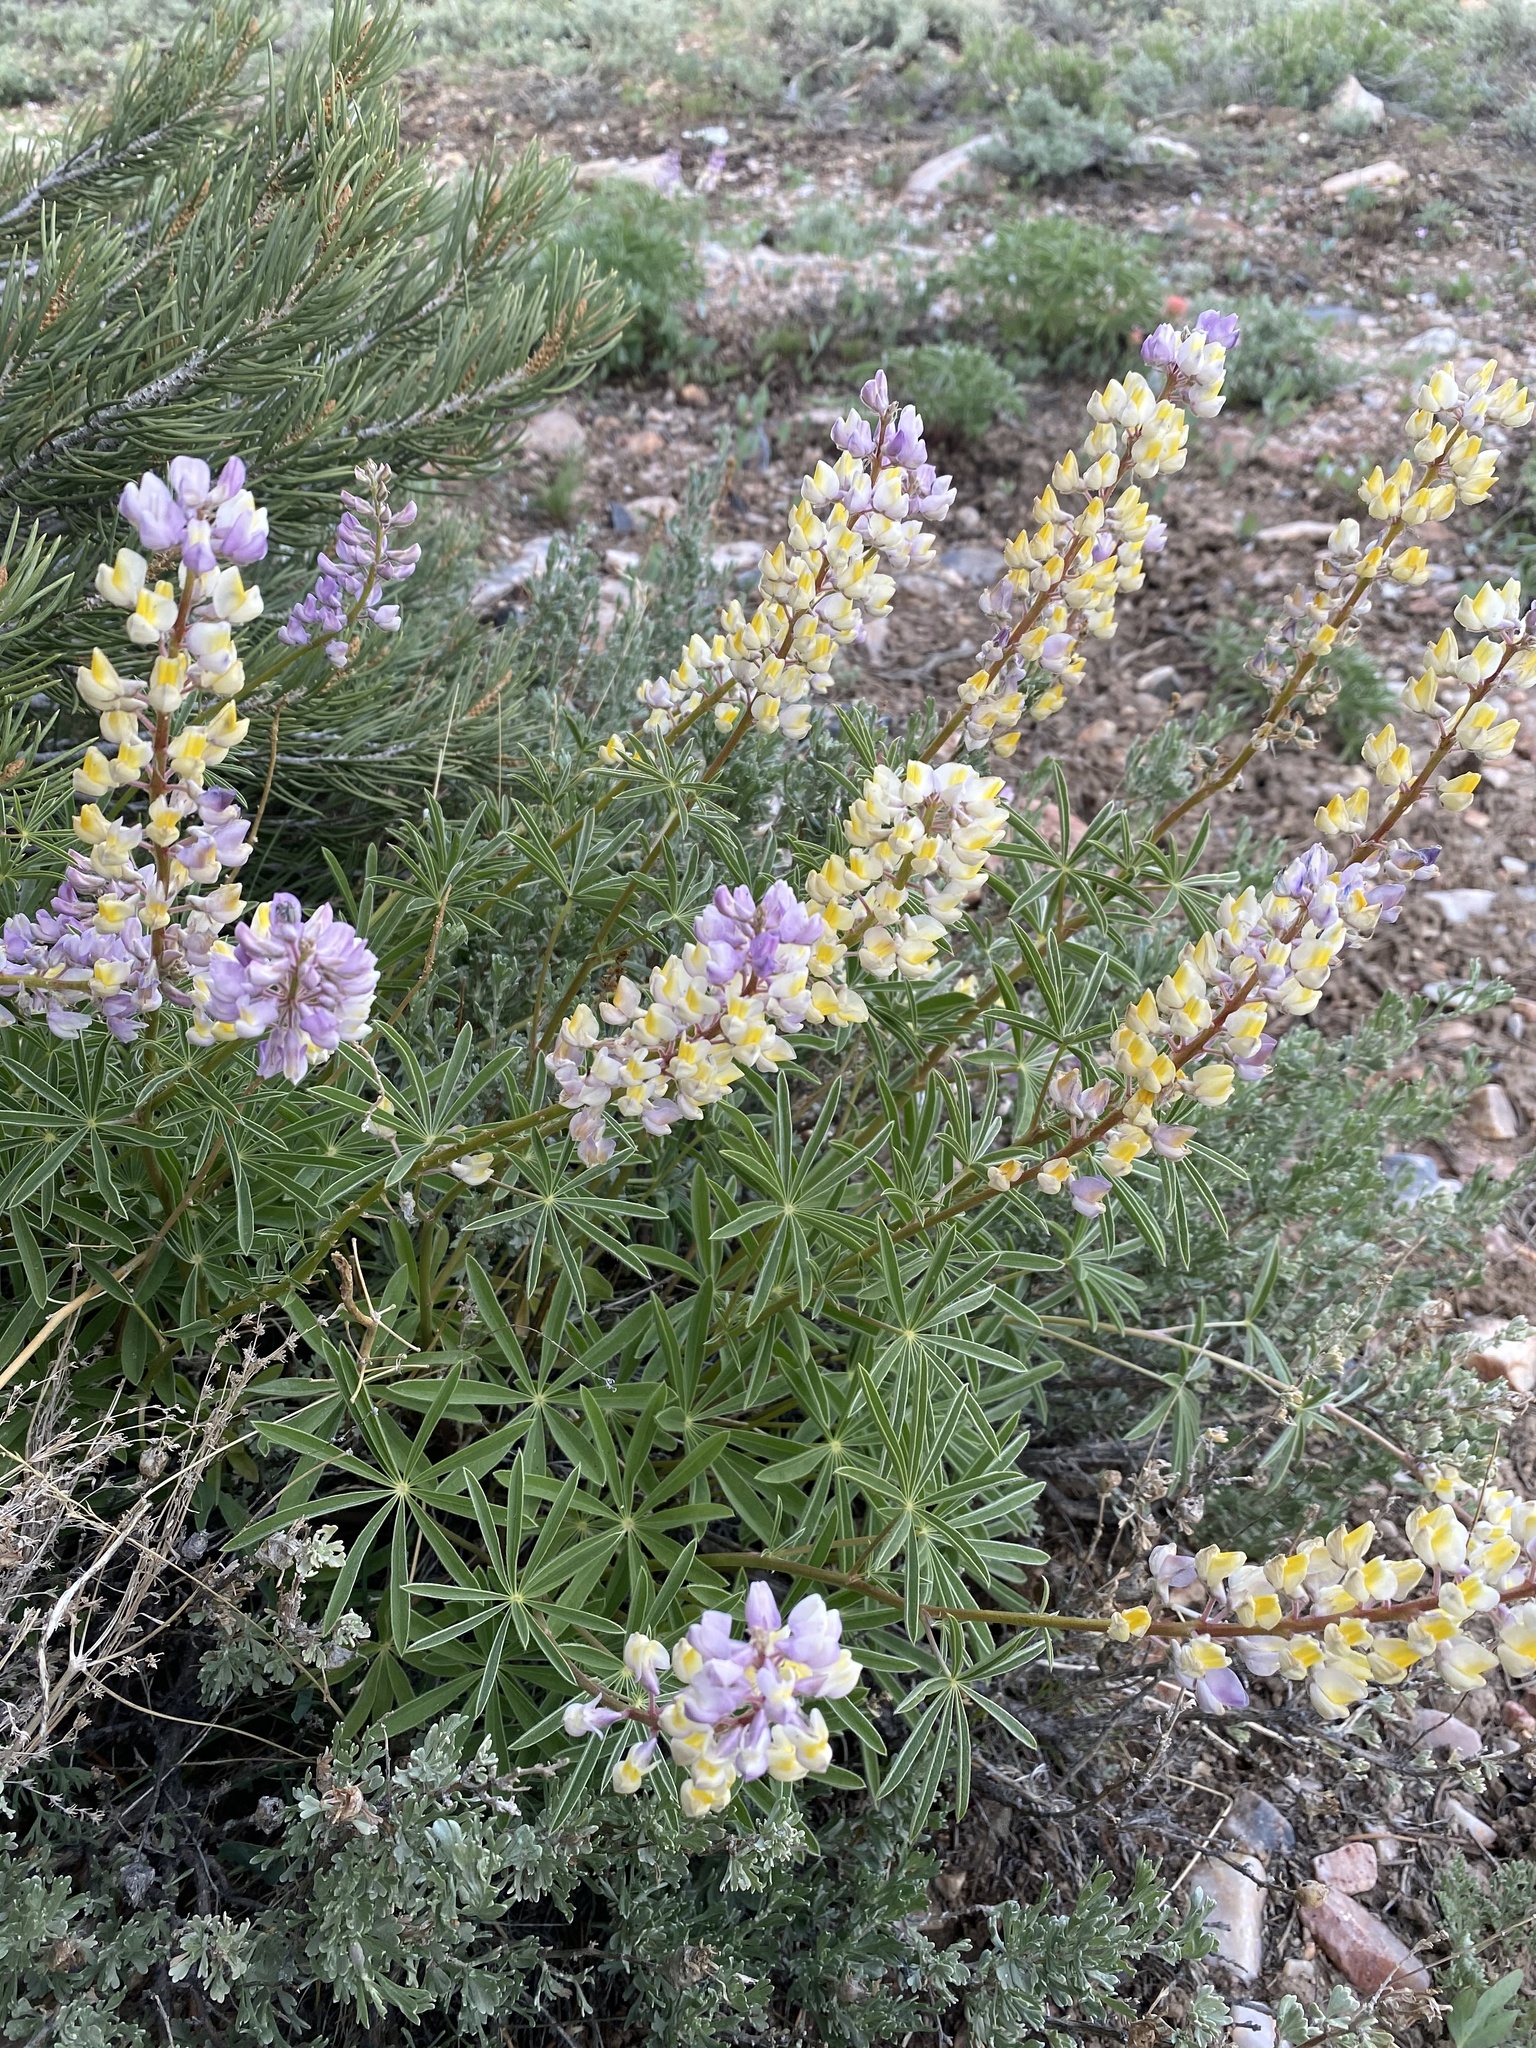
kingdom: Plantae
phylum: Tracheophyta
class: Magnoliopsida
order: Fabales
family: Fabaceae
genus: Lupinus
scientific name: Lupinus arbustus
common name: Montana lupine
